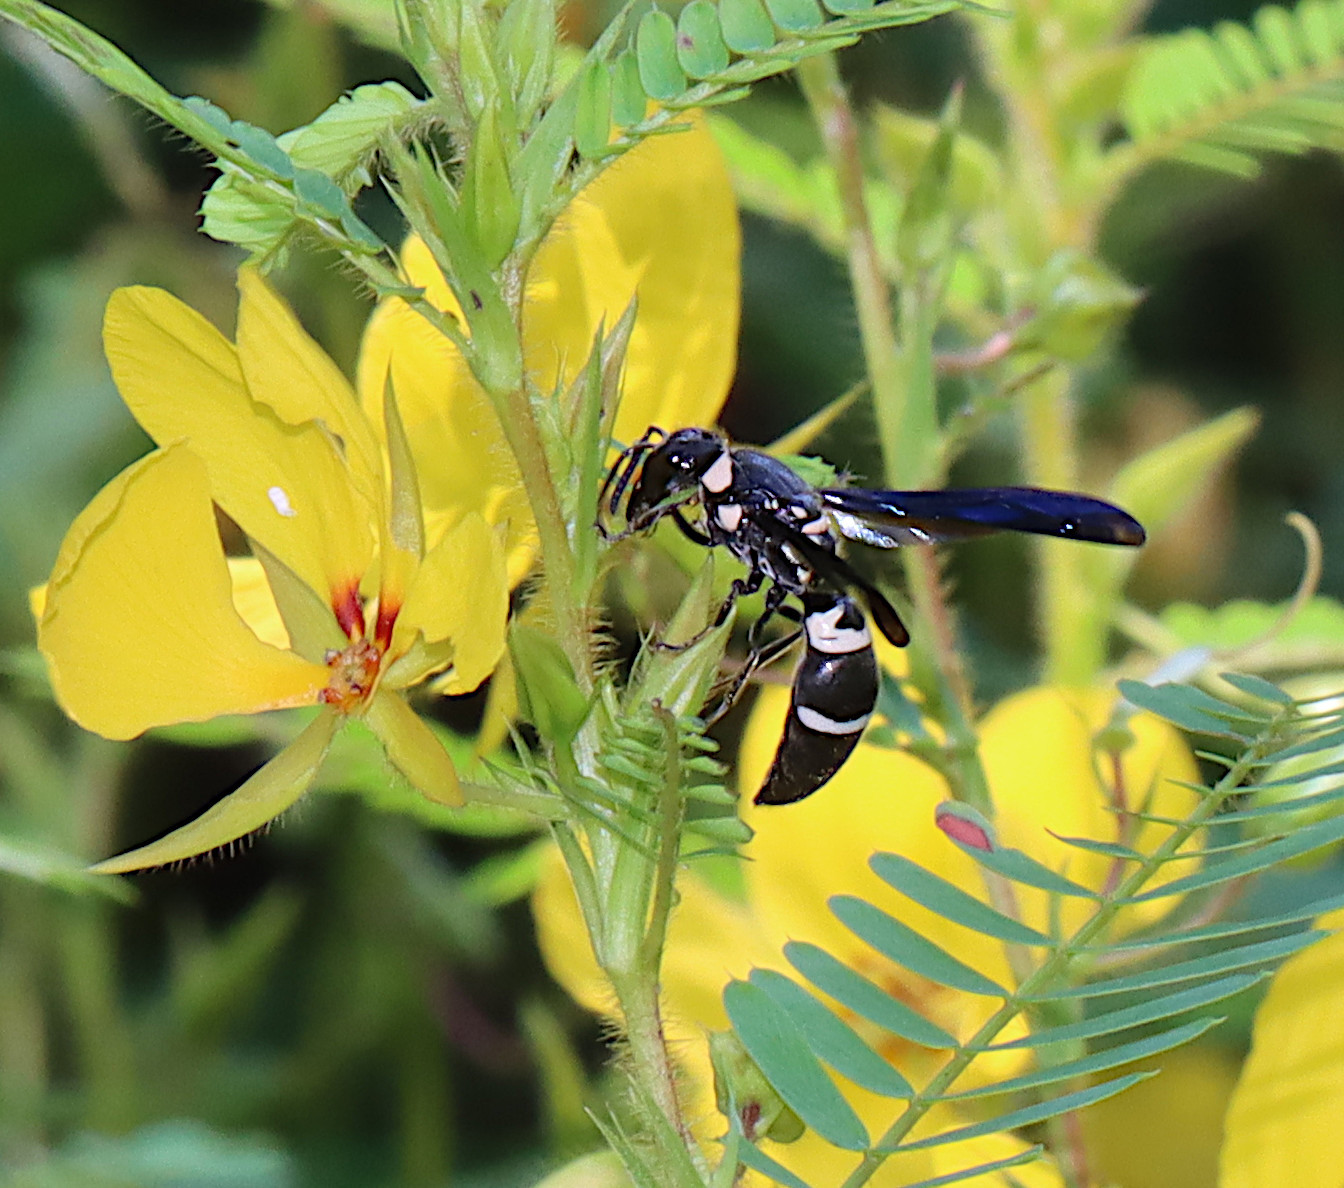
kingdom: Animalia
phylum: Arthropoda
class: Insecta
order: Hymenoptera
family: Eumenidae
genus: Pseudodynerus
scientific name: Pseudodynerus quadrisectus
